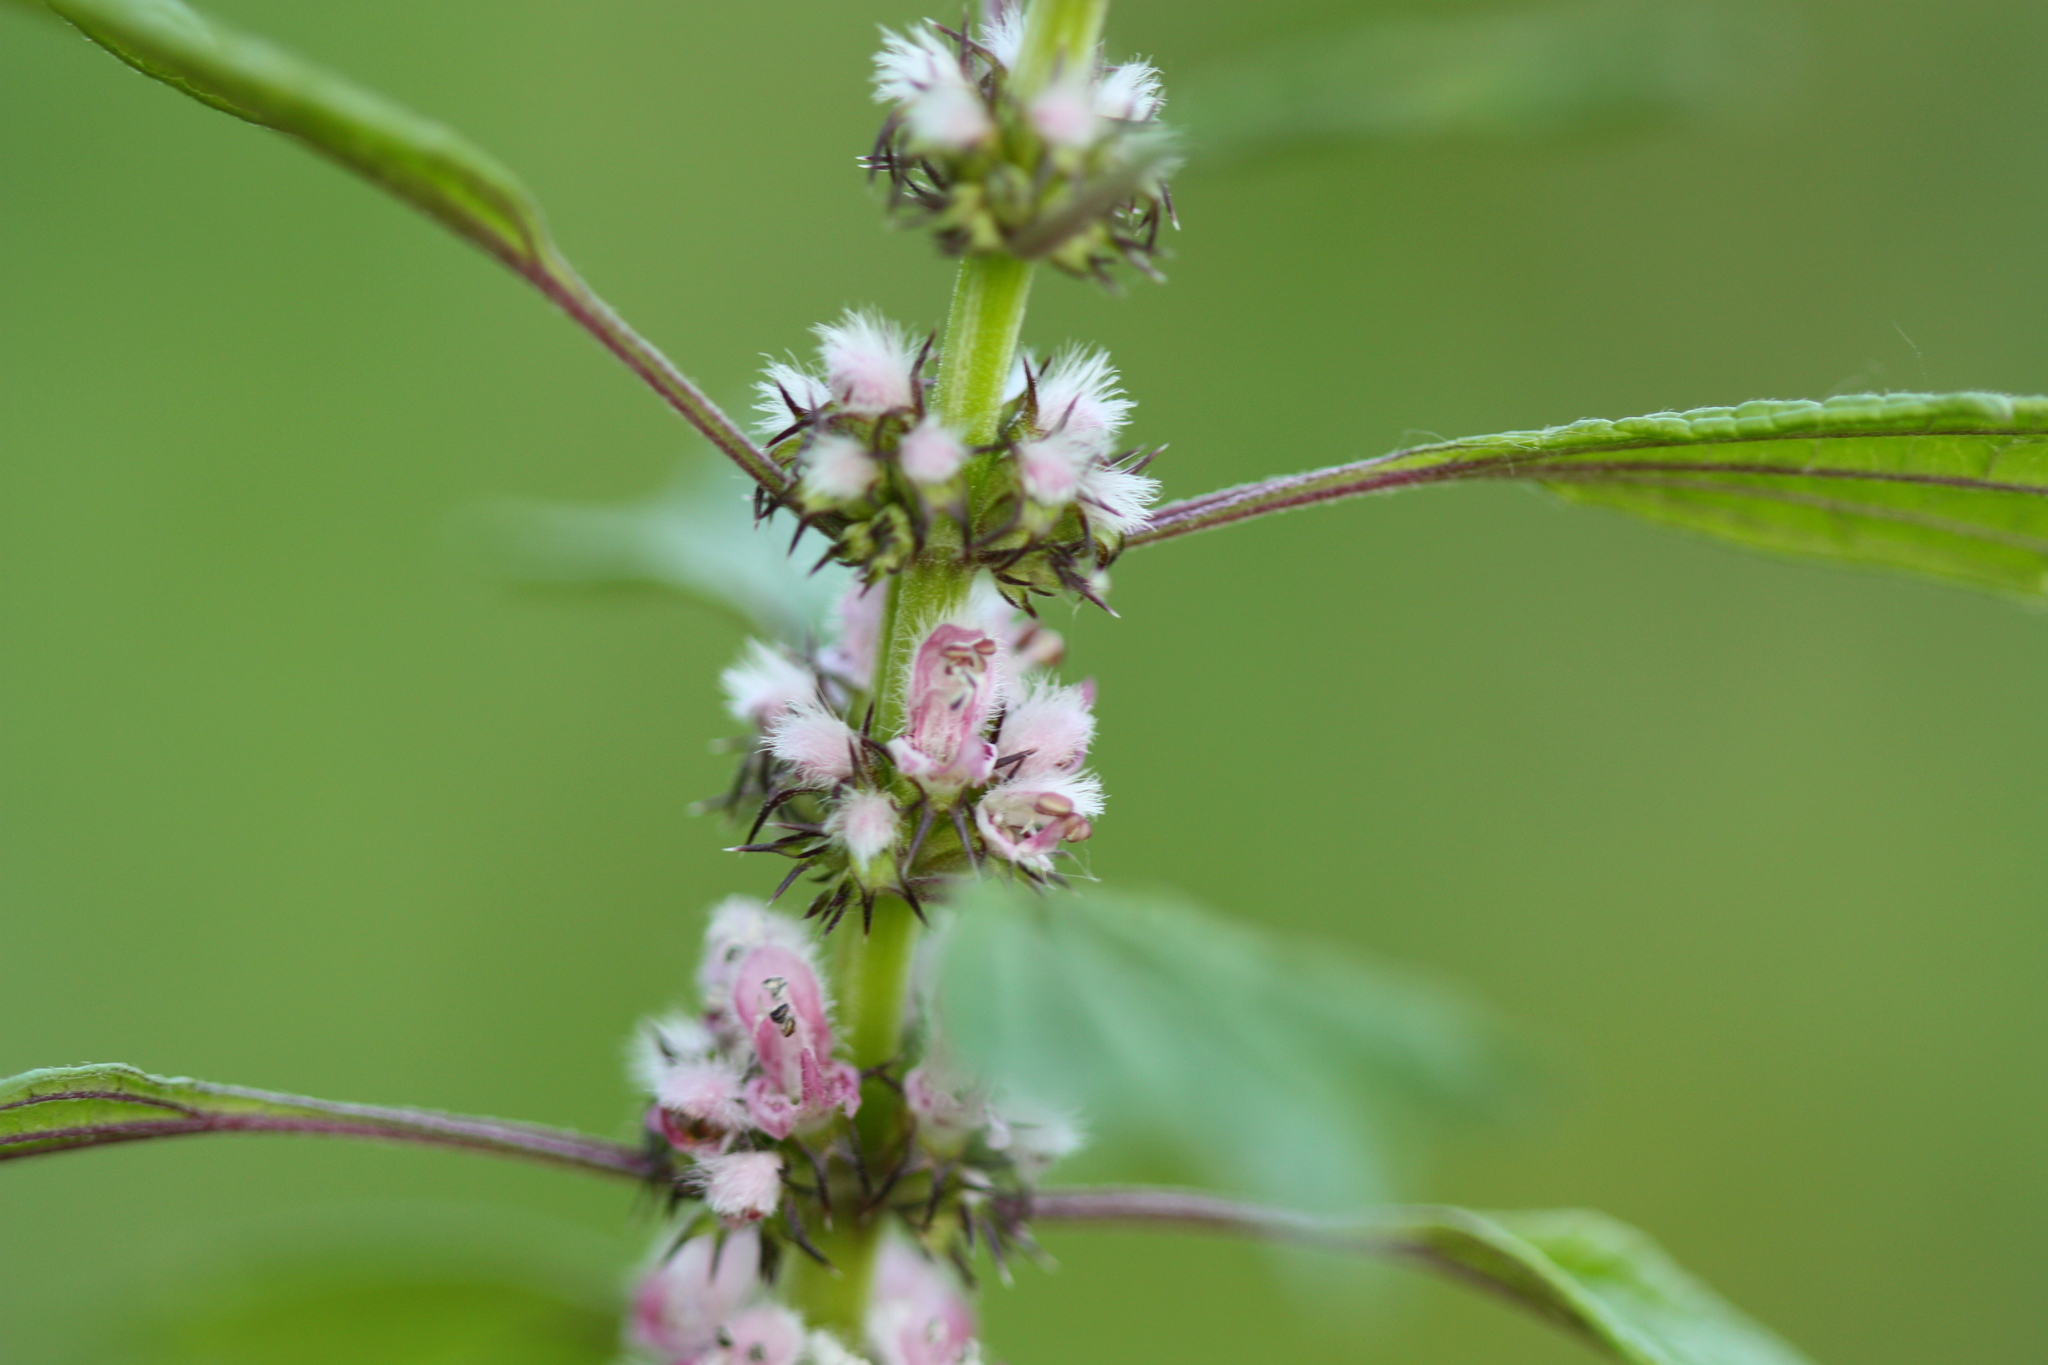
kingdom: Plantae
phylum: Tracheophyta
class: Magnoliopsida
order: Lamiales
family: Lamiaceae
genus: Leonurus
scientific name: Leonurus cardiaca
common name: Motherwort
